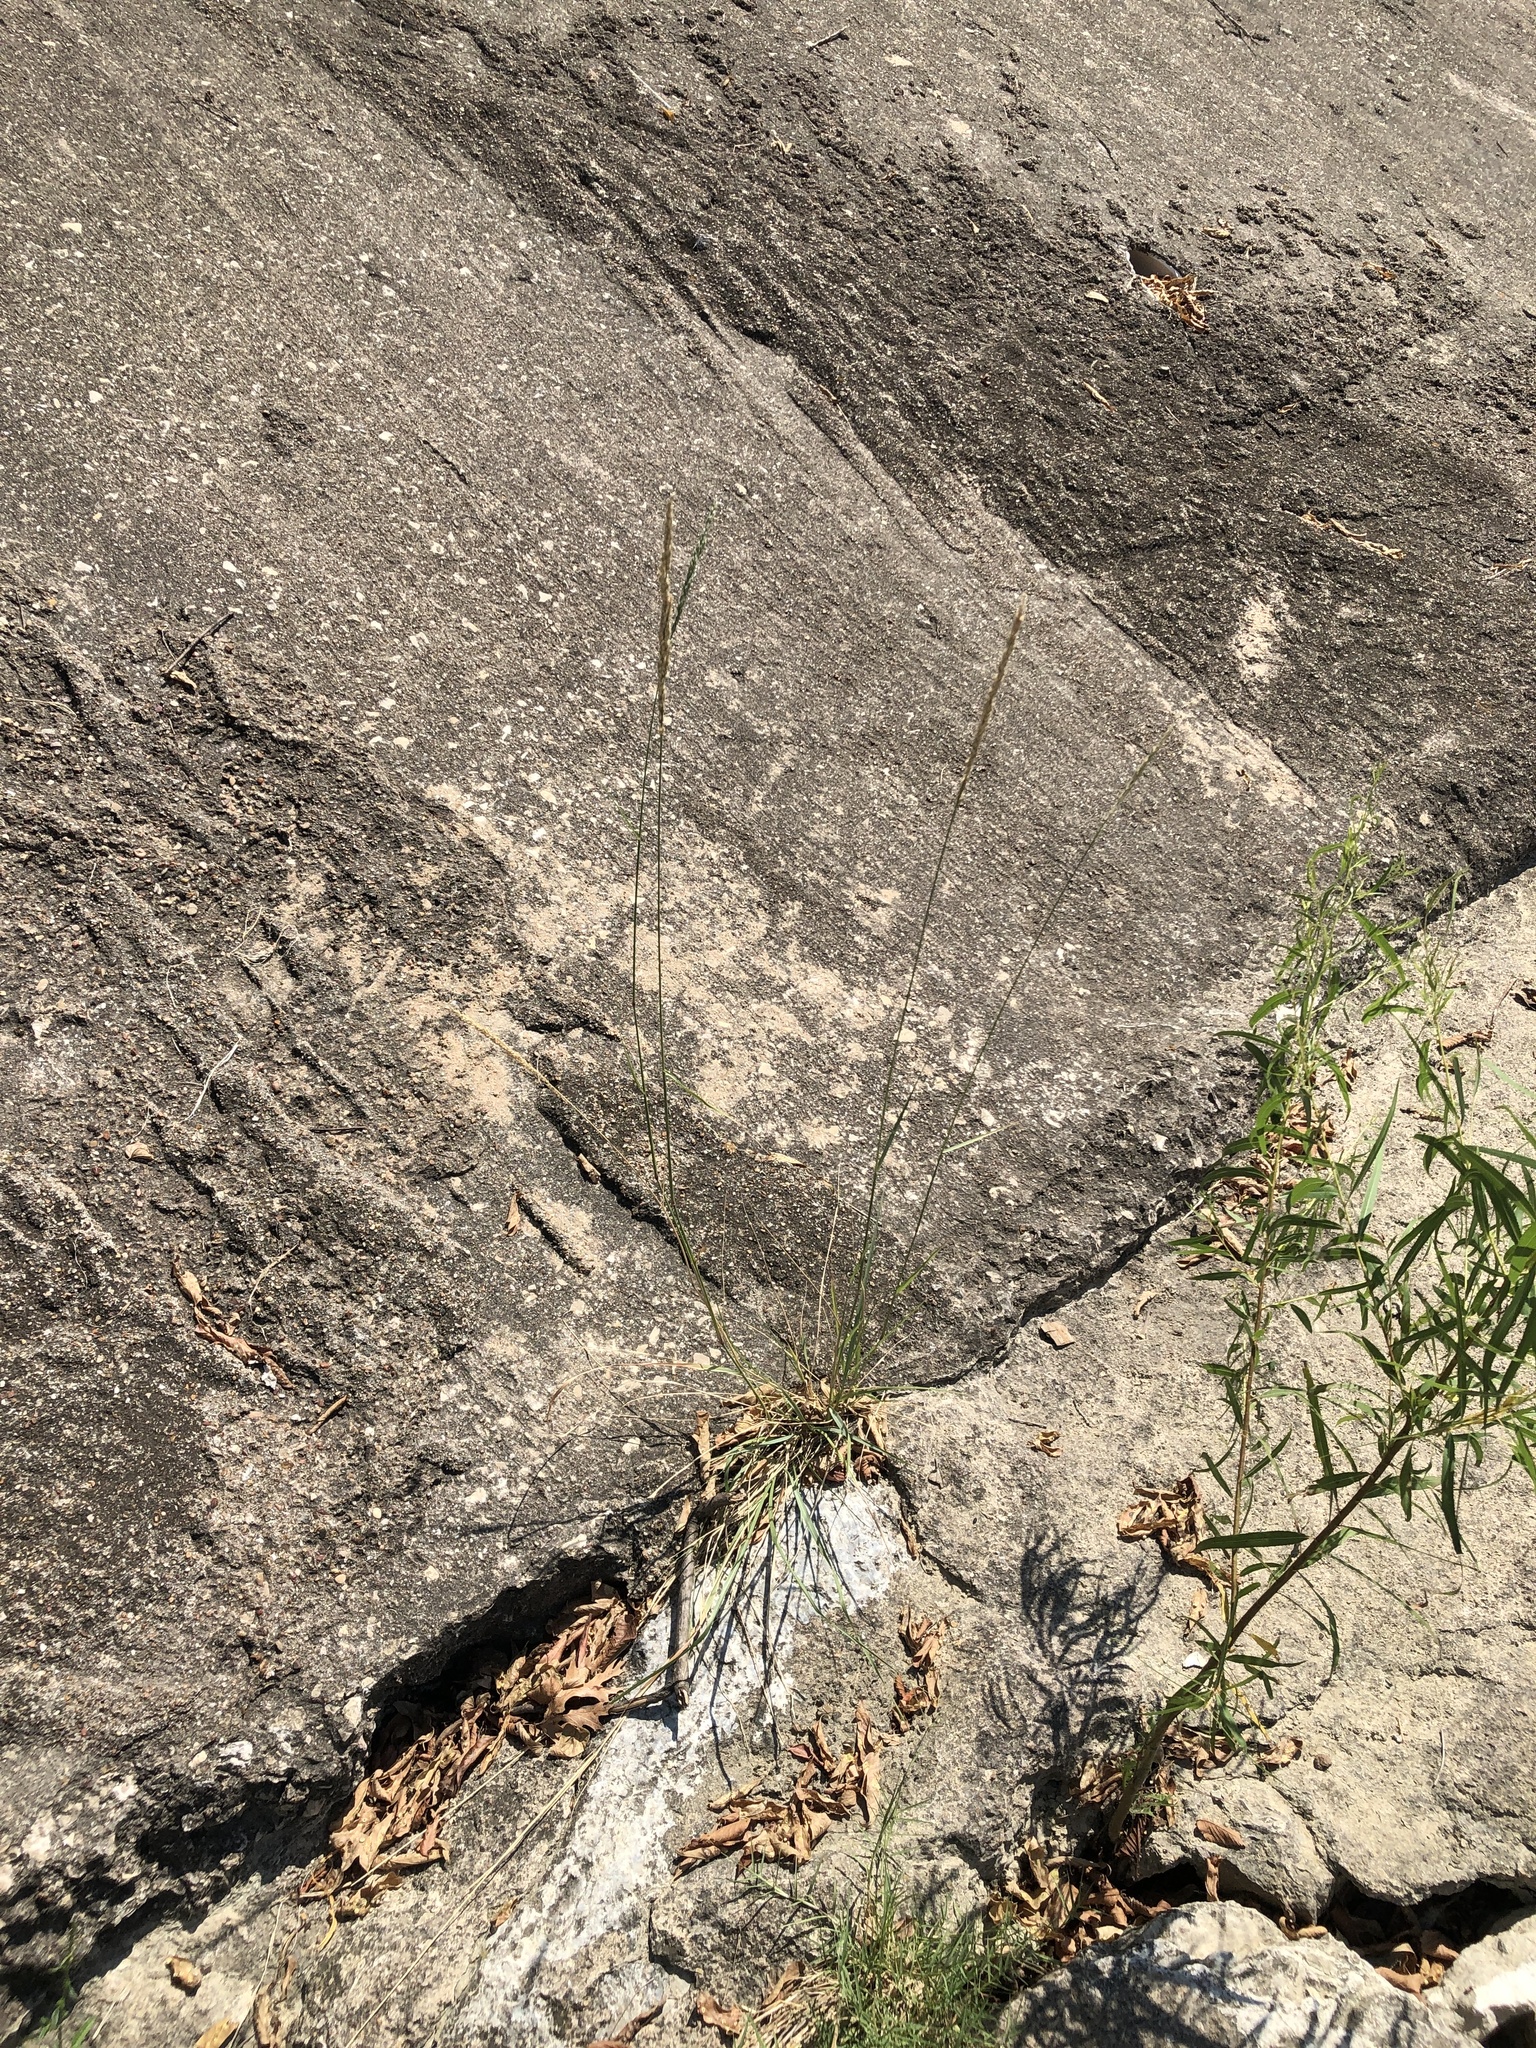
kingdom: Plantae
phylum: Tracheophyta
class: Liliopsida
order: Poales
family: Poaceae
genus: Tridens
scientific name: Tridens albescens
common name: White tridens
